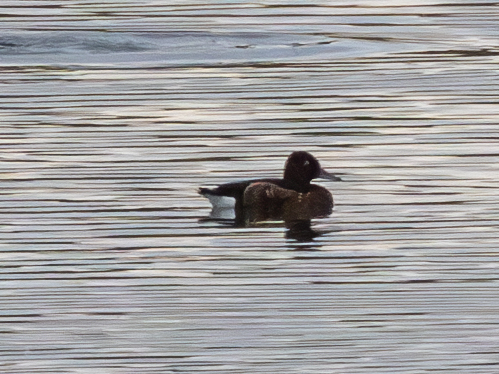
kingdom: Animalia
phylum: Chordata
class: Aves
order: Anseriformes
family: Anatidae
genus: Aythya
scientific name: Aythya nyroca
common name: Ferruginous duck
